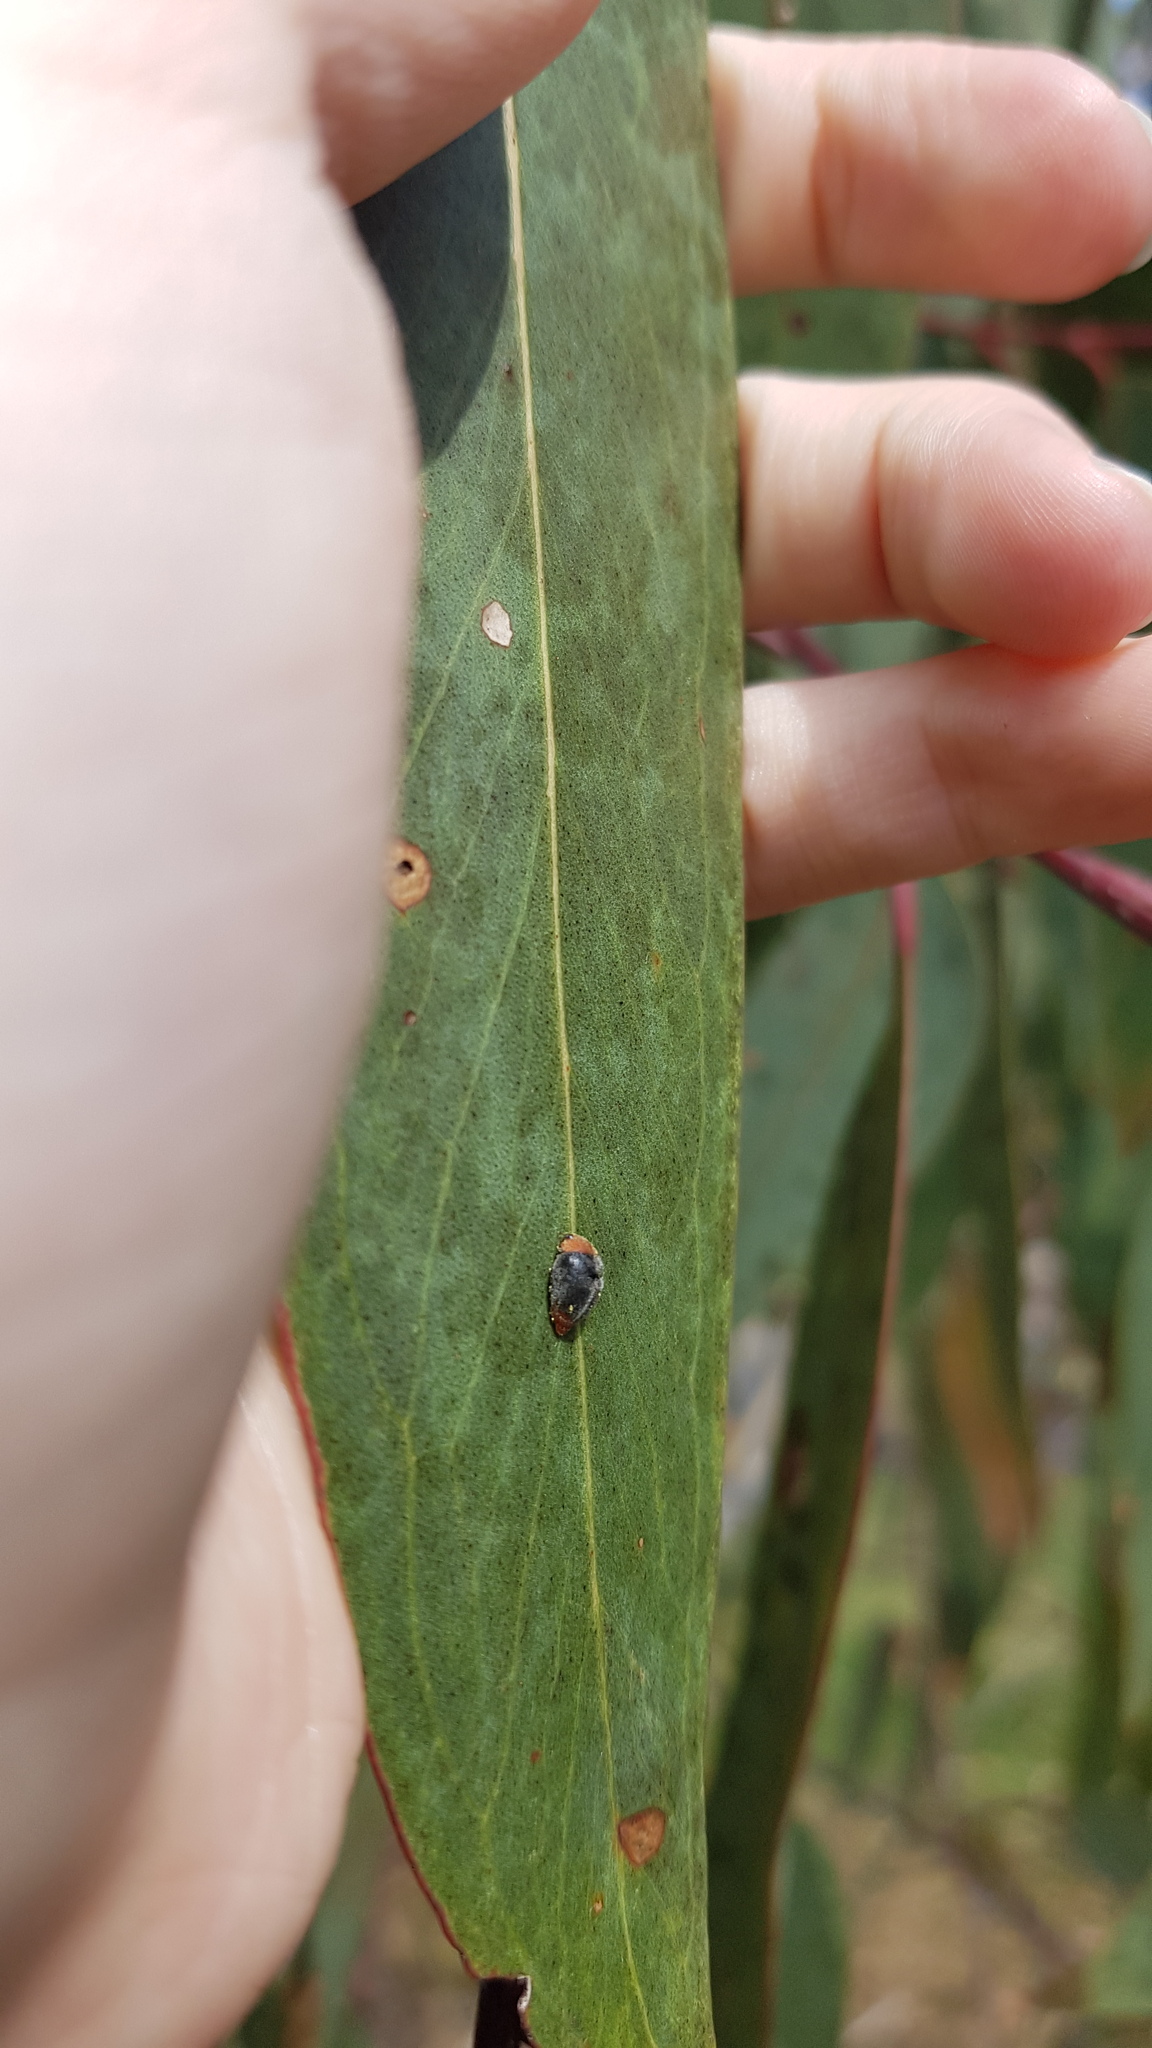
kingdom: Animalia
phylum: Arthropoda
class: Insecta
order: Coleoptera
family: Coccinellidae
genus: Cryptolaemus
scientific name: Cryptolaemus montrouzieri
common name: Mealybug destroyer
